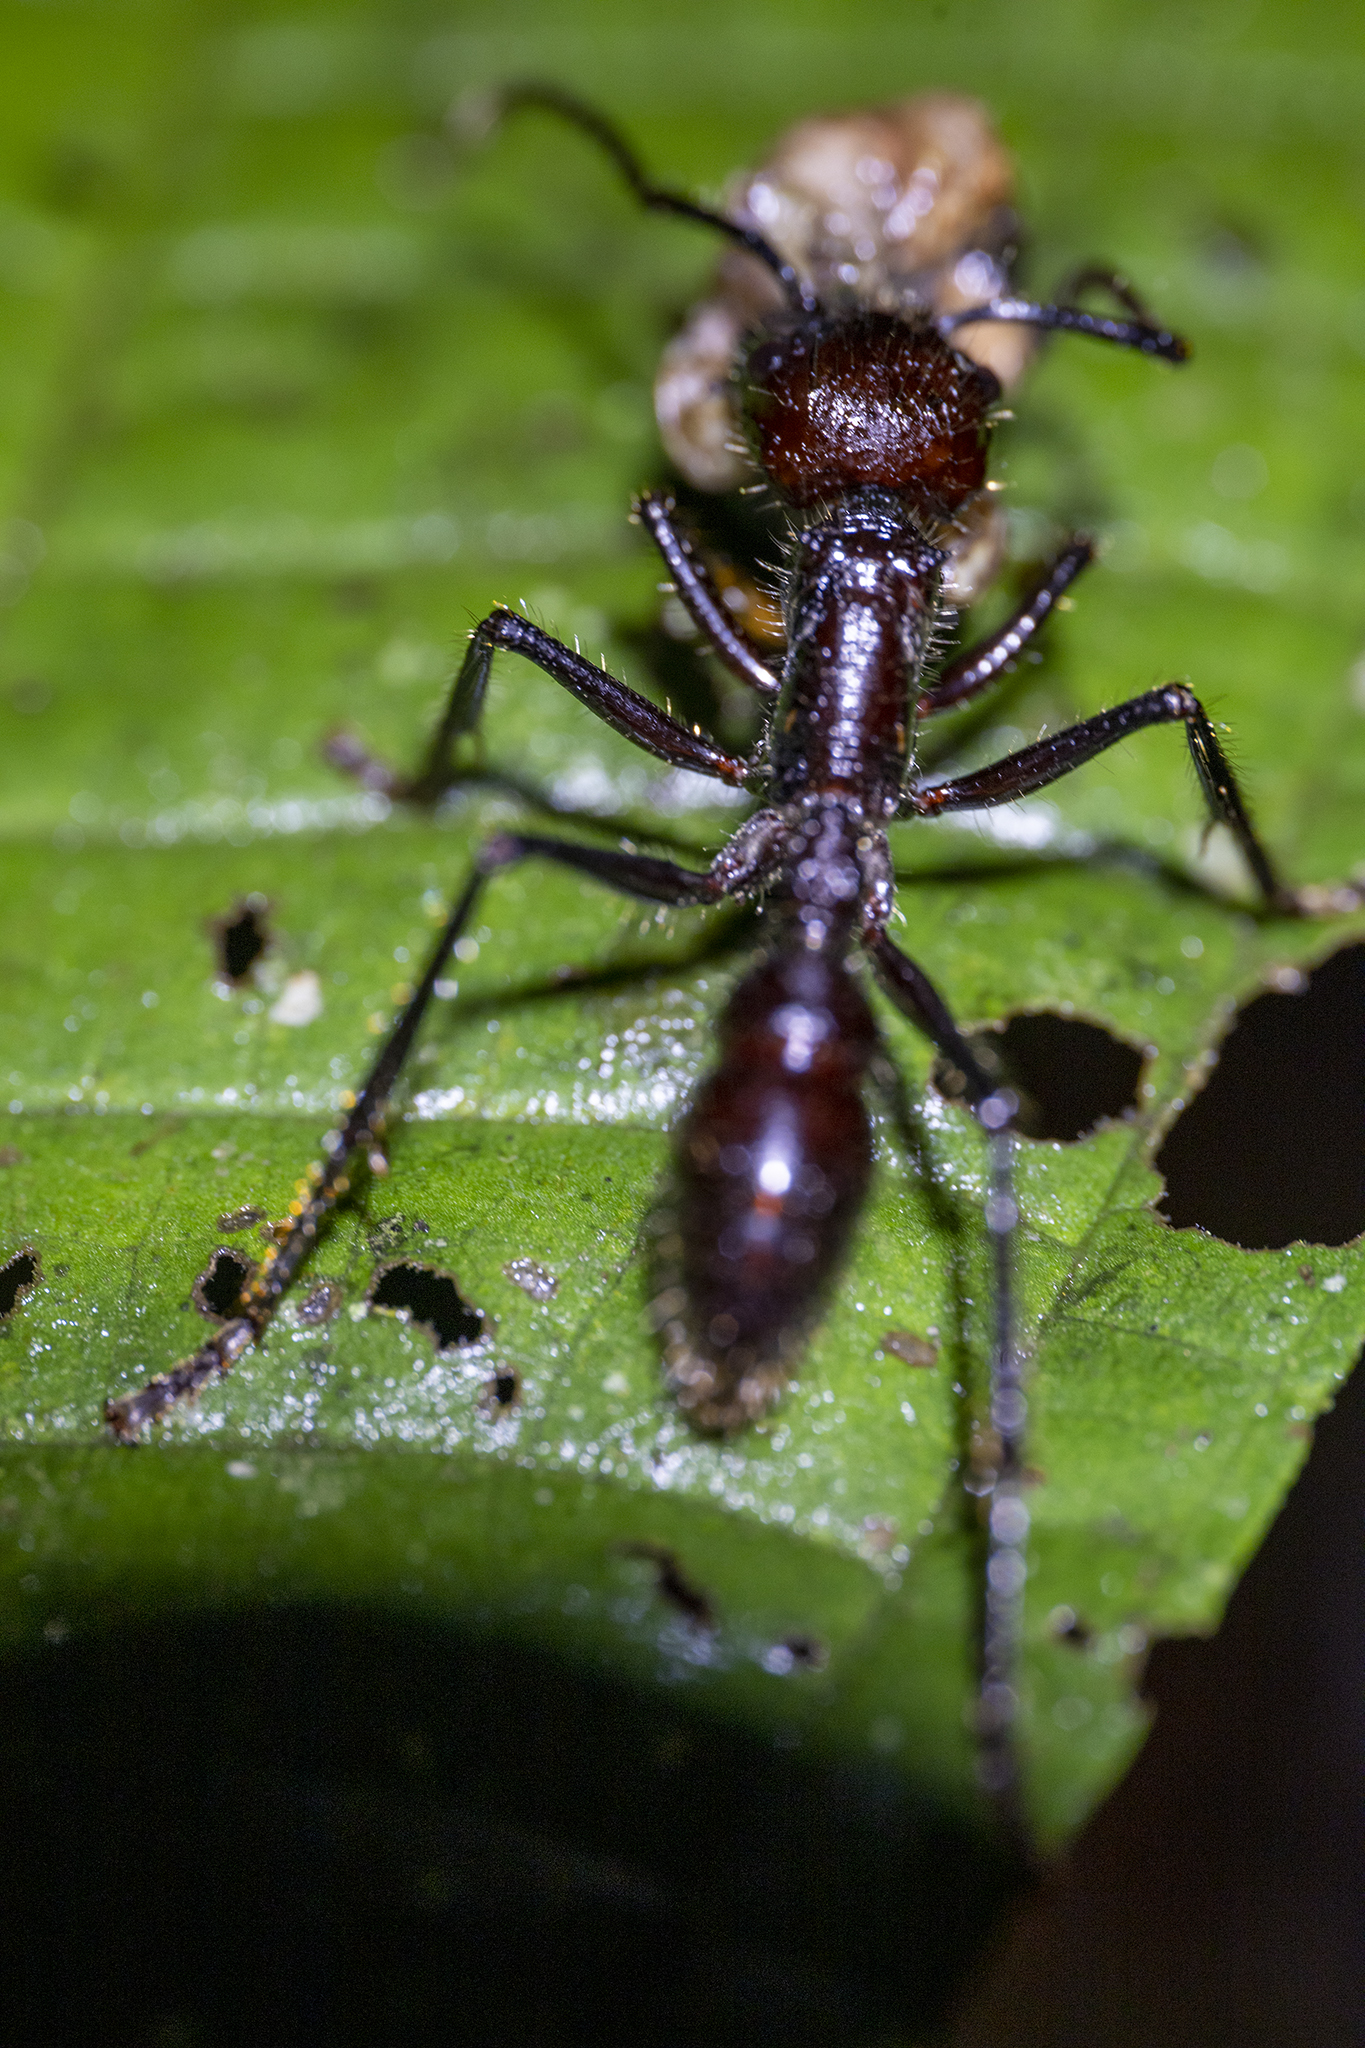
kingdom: Animalia
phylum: Arthropoda
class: Insecta
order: Hymenoptera
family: Formicidae
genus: Paraponera
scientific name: Paraponera clavata
